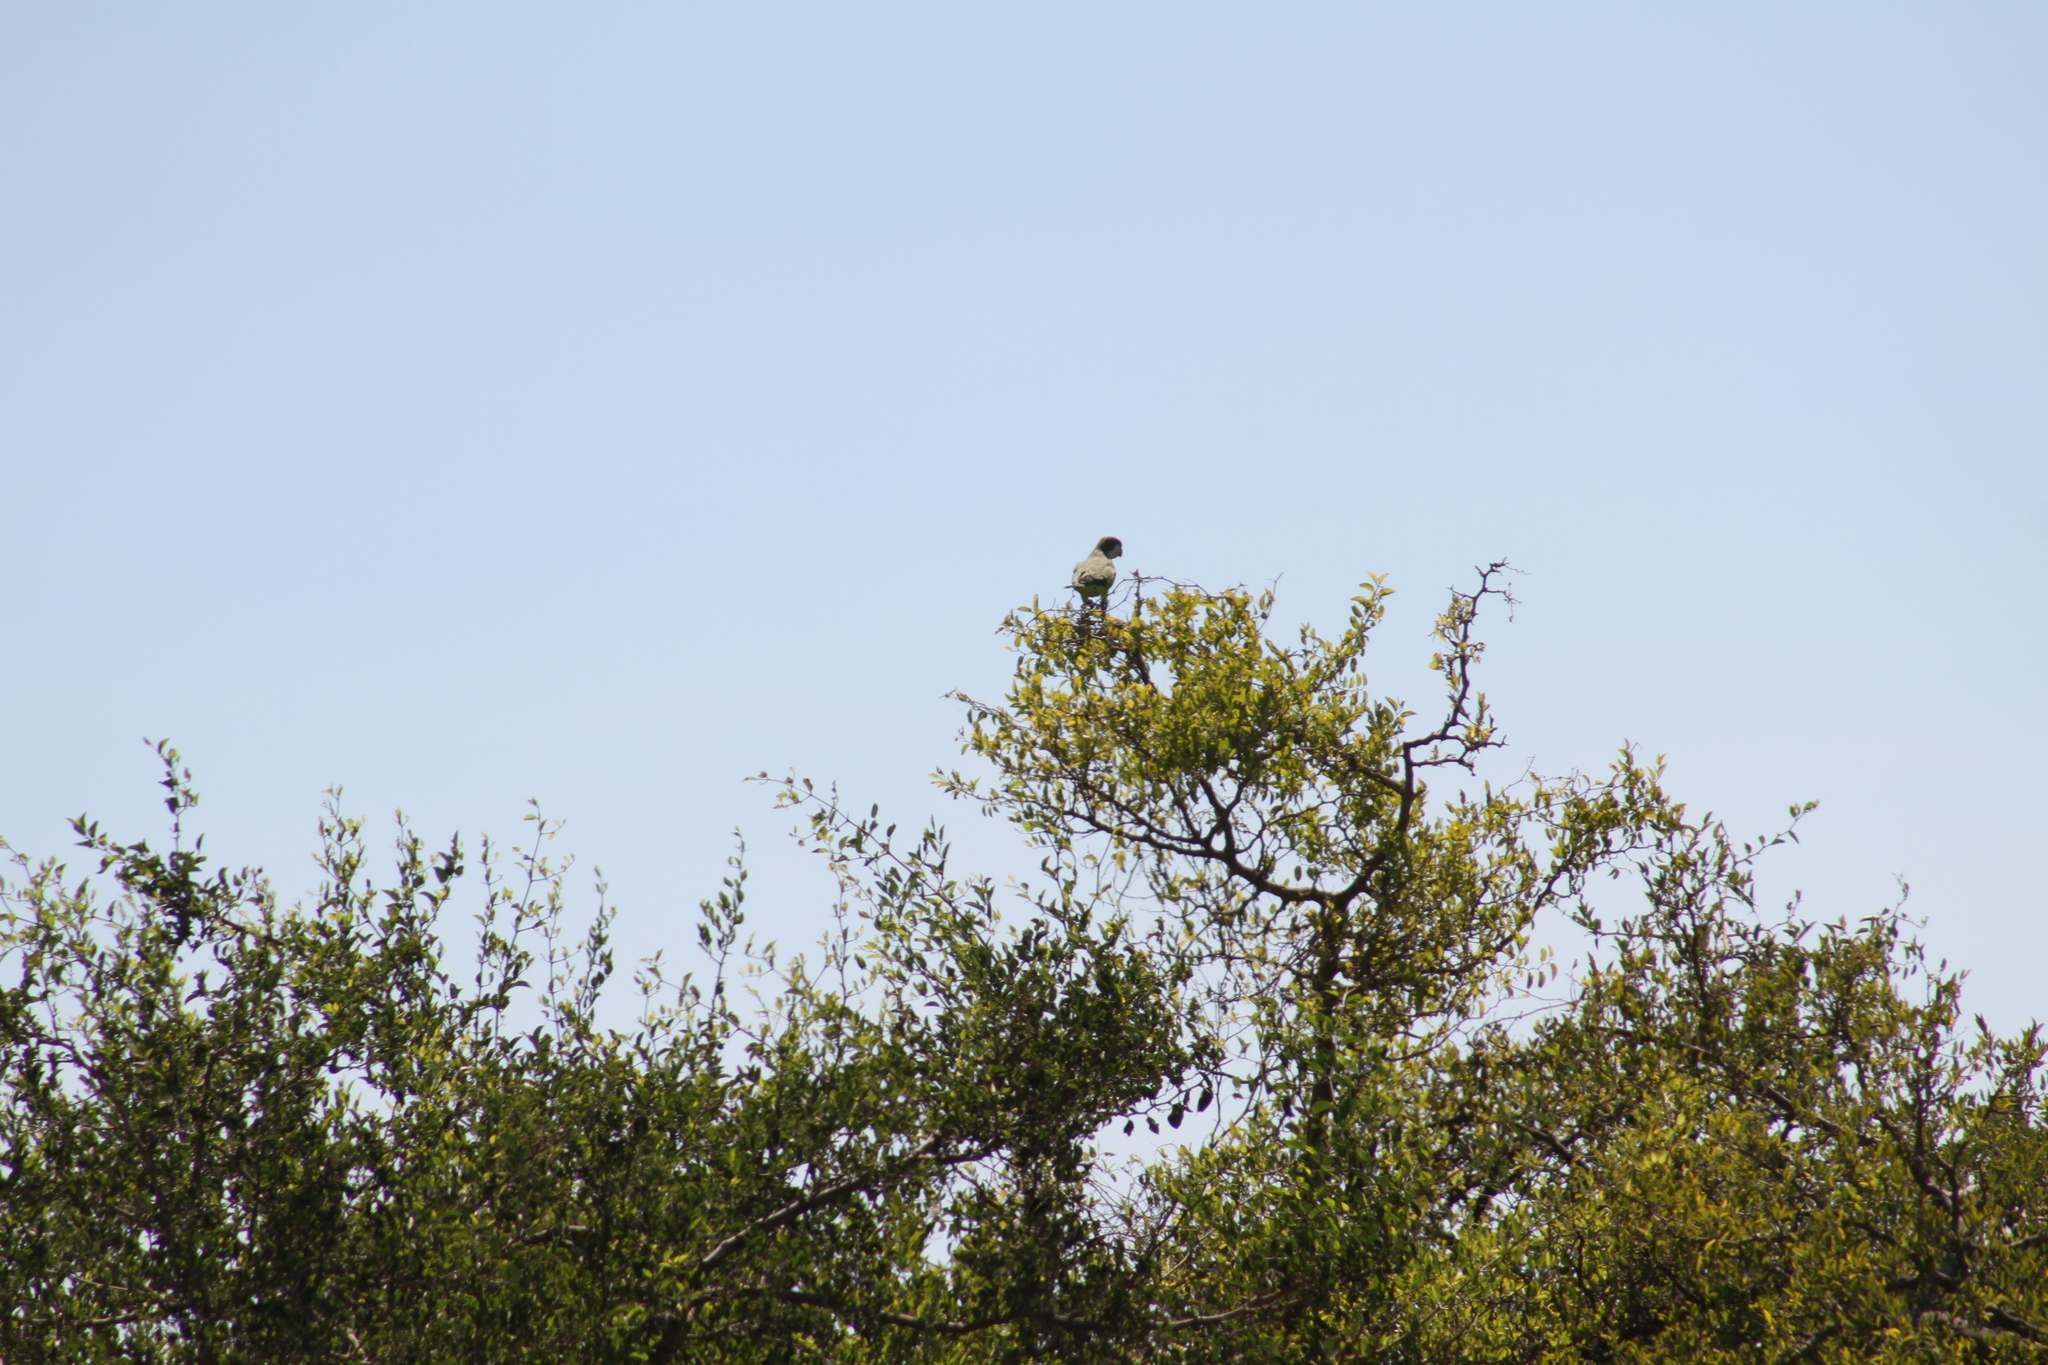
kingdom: Animalia
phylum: Chordata
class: Aves
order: Psittaciformes
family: Psittacidae
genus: Myiopsitta
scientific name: Myiopsitta monachus
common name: Monk parakeet
